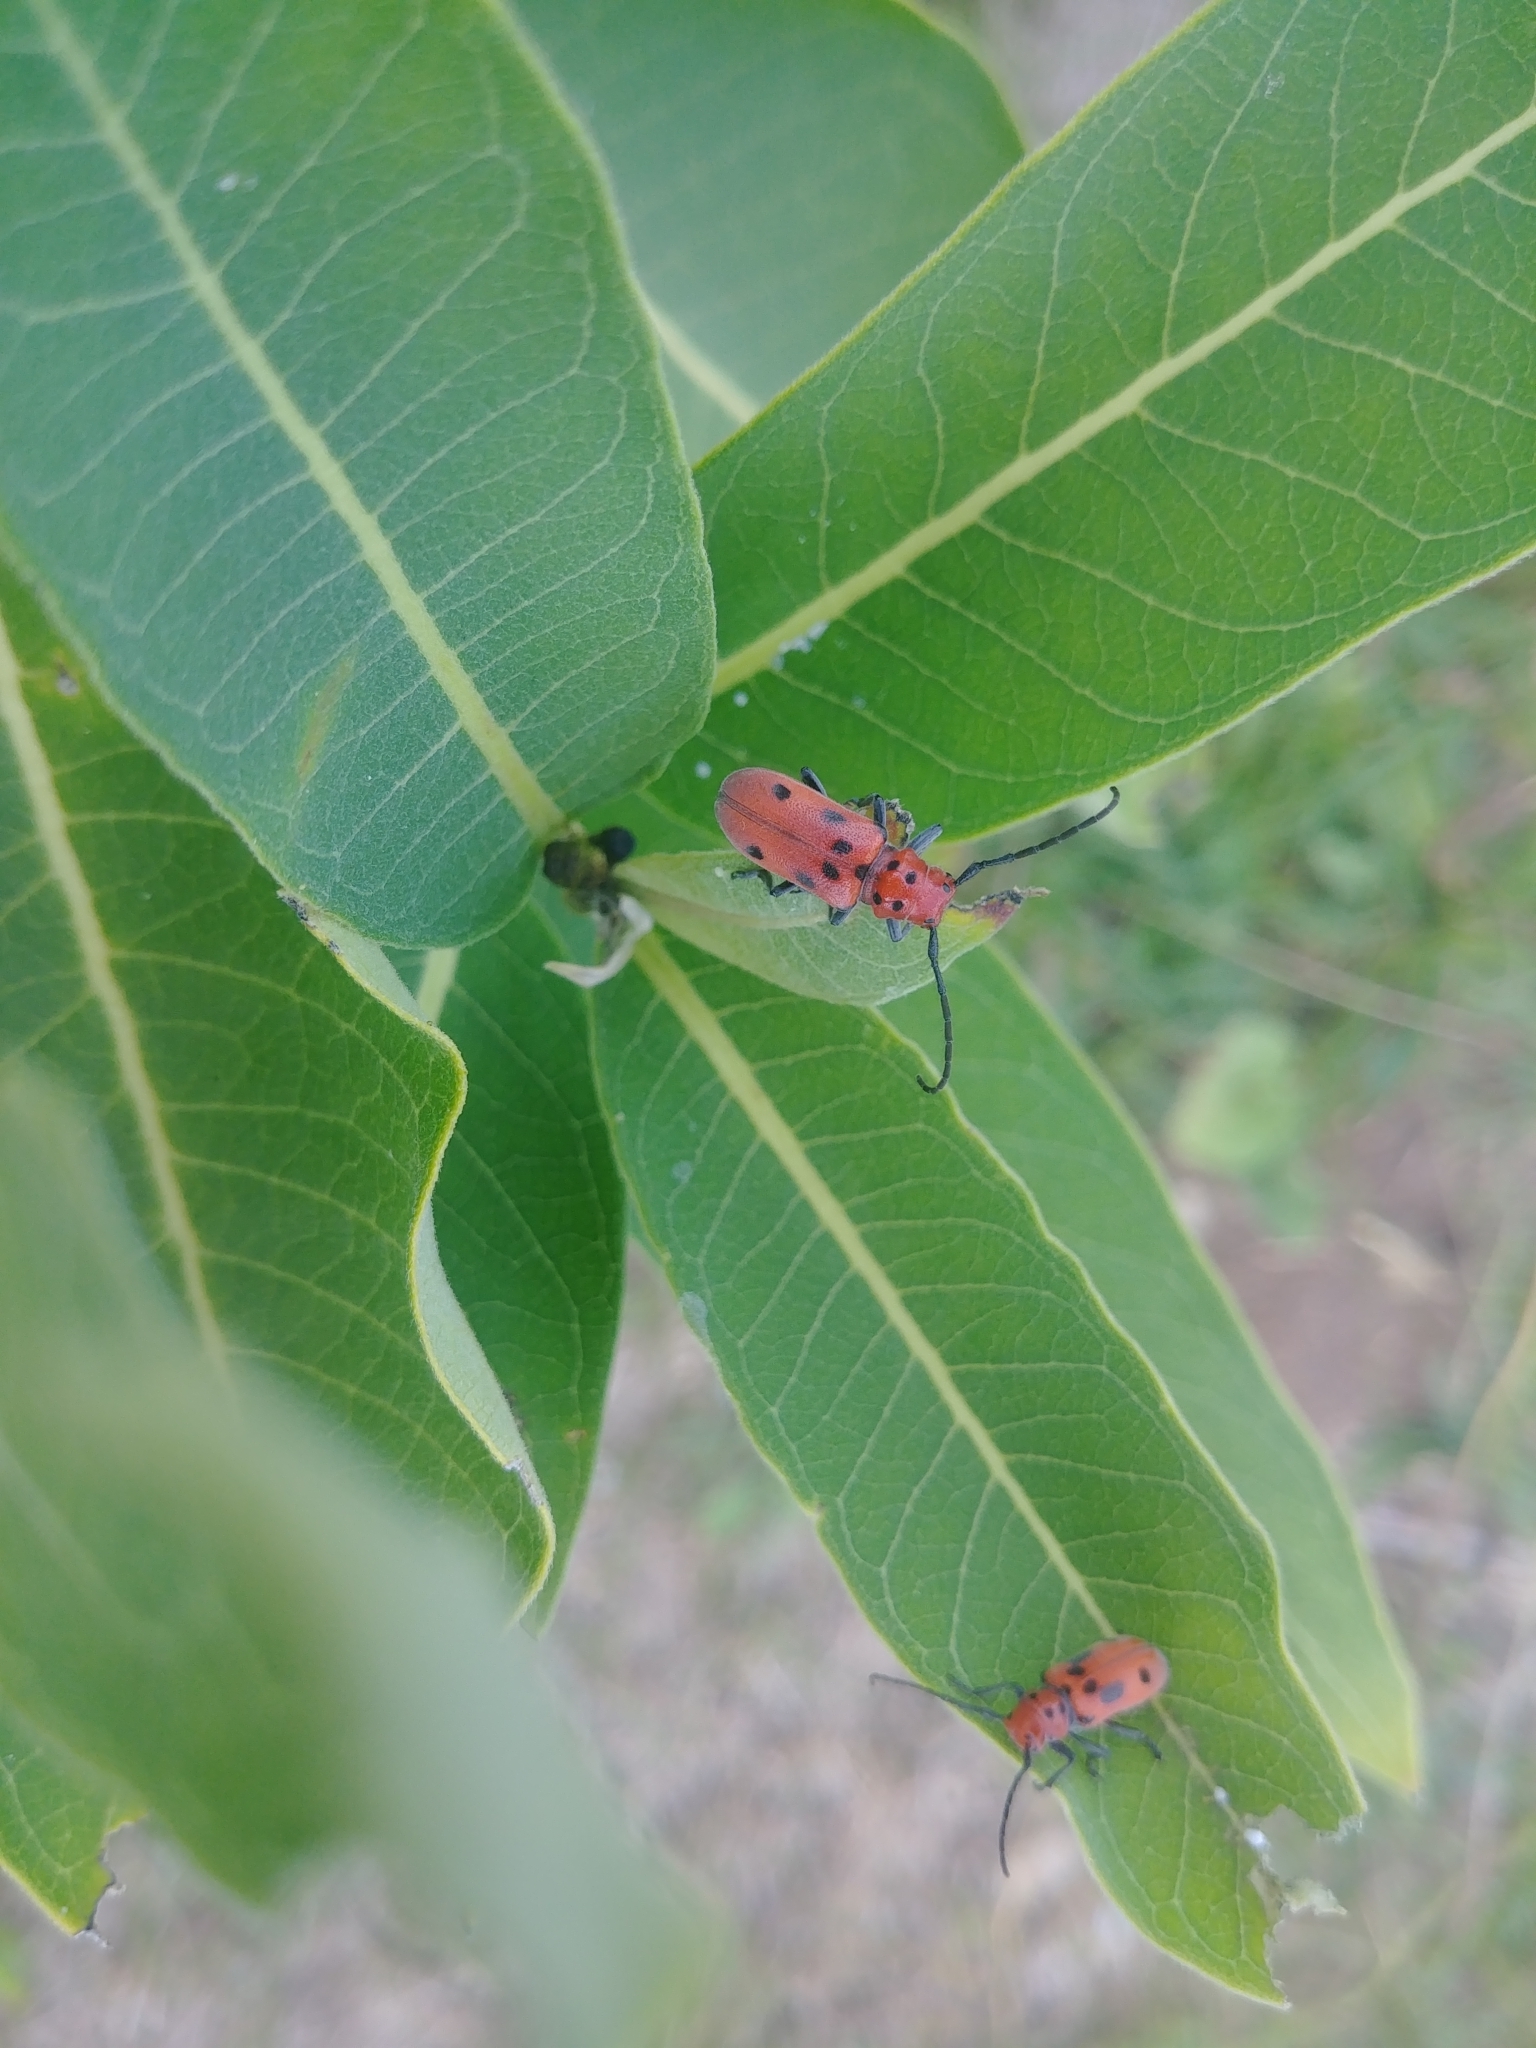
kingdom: Animalia
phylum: Arthropoda
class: Insecta
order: Coleoptera
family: Cerambycidae
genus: Tetraopes
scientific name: Tetraopes tetrophthalmus
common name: Red milkweed beetle
